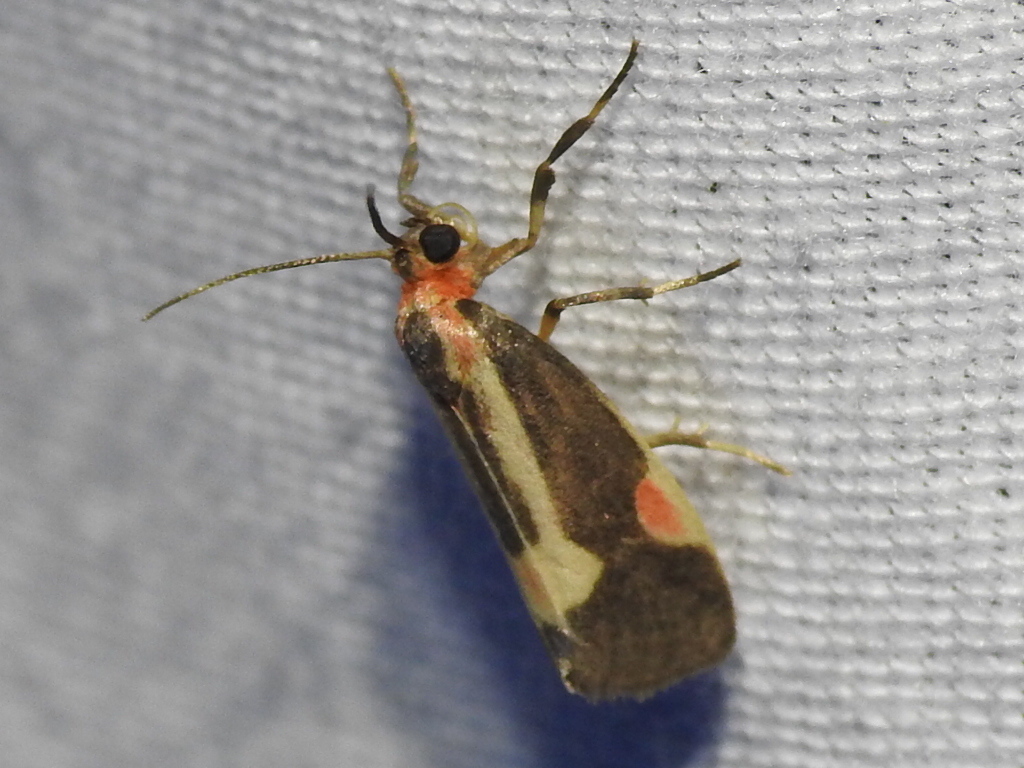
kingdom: Animalia
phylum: Arthropoda
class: Insecta
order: Lepidoptera
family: Erebidae
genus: Cisthene
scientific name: Cisthene packardii
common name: Packard's lichen moth
